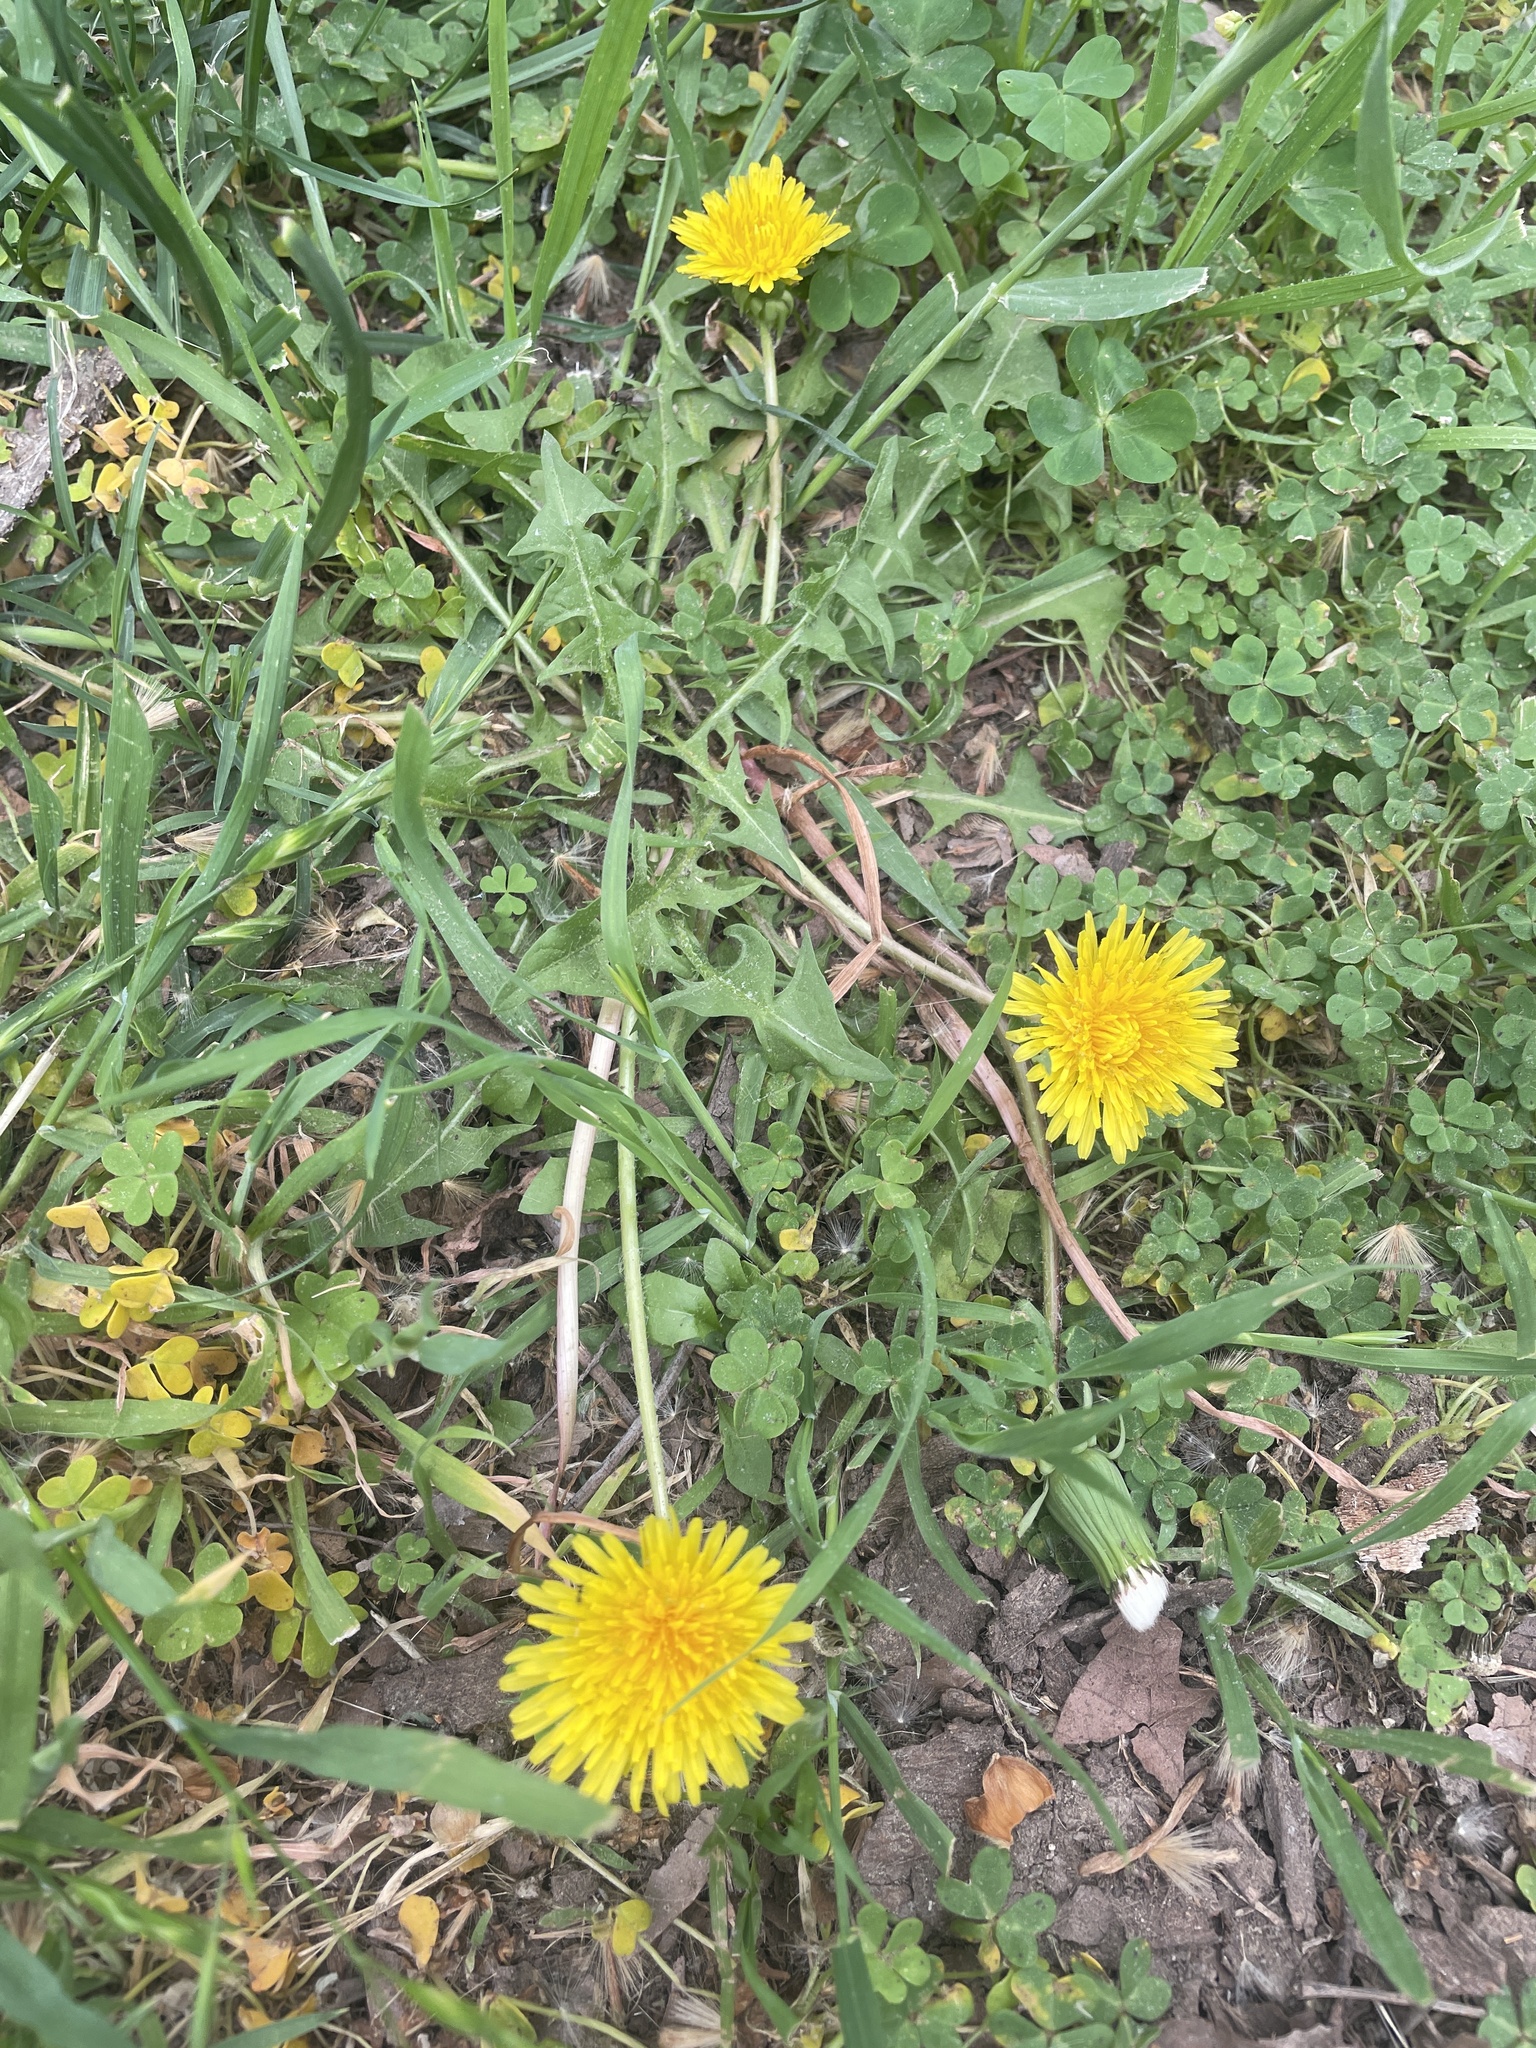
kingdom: Plantae
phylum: Tracheophyta
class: Magnoliopsida
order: Asterales
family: Asteraceae
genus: Taraxacum
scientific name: Taraxacum officinale
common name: Common dandelion
